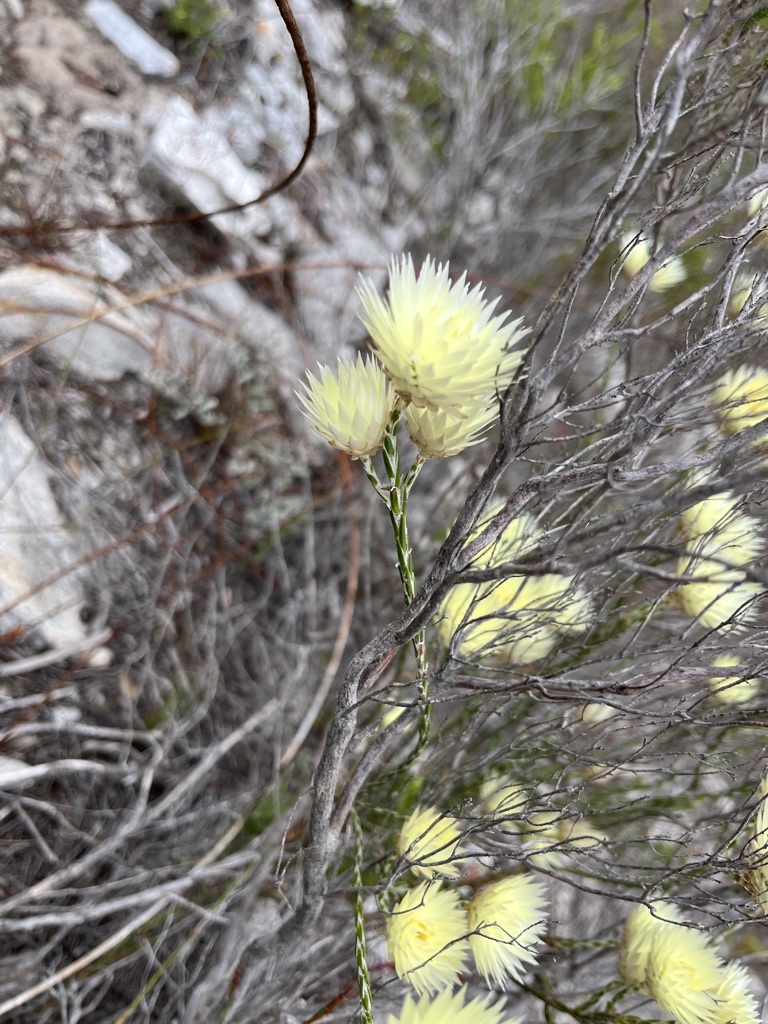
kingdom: Plantae
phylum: Tracheophyta
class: Magnoliopsida
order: Asterales
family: Asteraceae
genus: Edmondia
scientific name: Edmondia sesamoides
